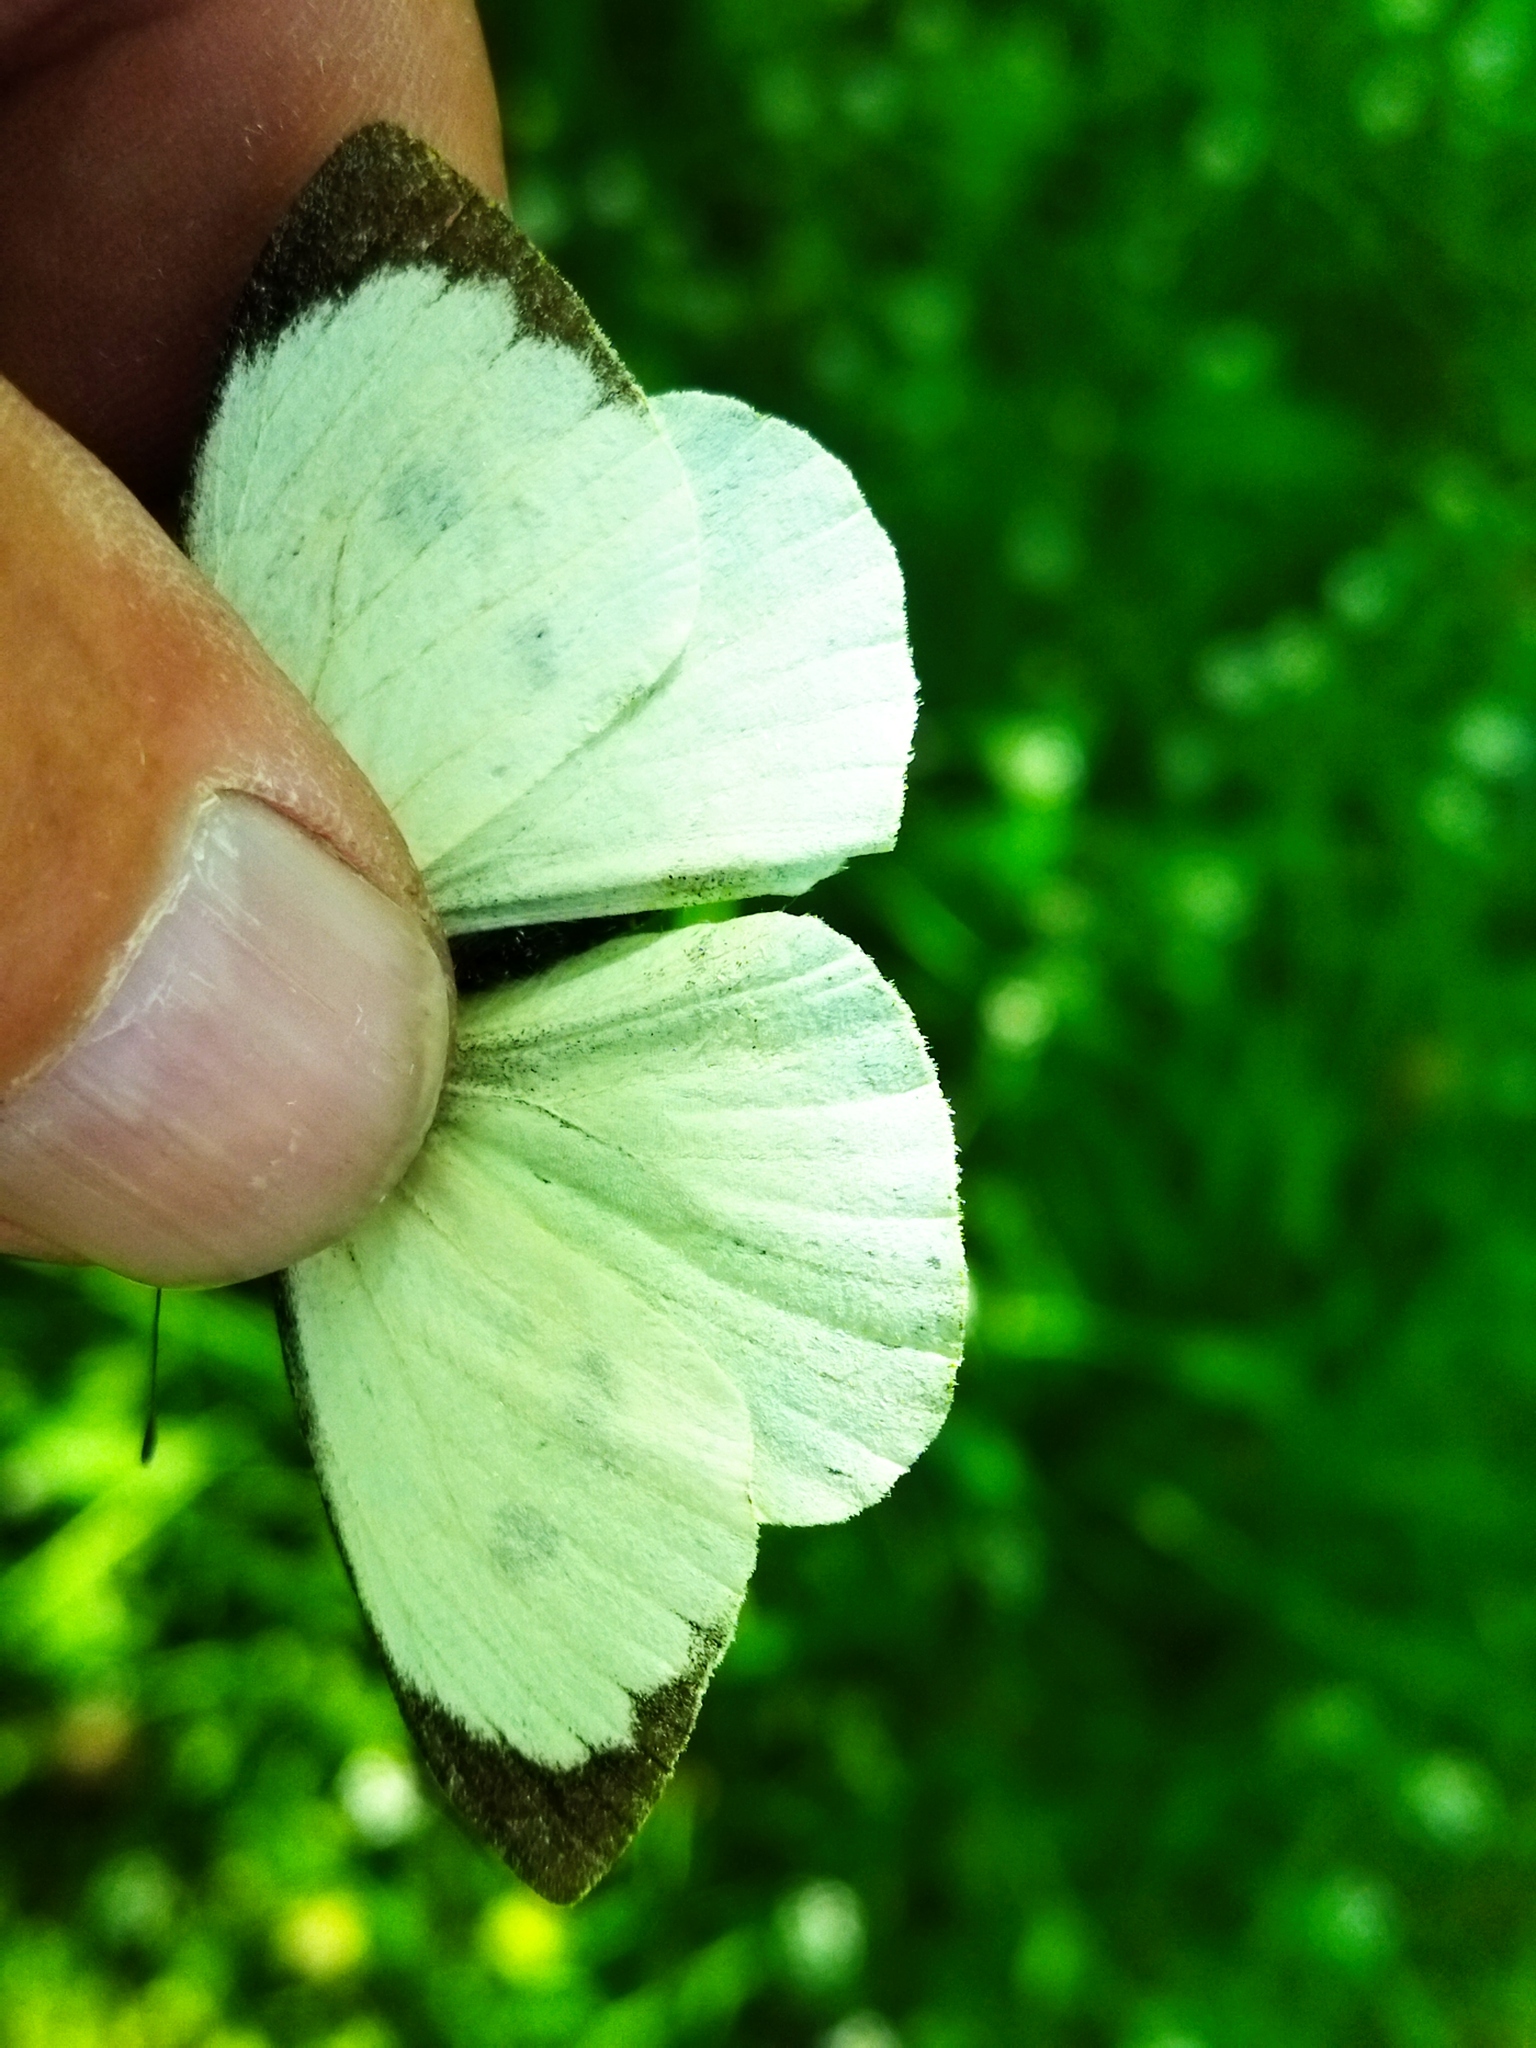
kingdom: Animalia
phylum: Arthropoda
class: Insecta
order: Lepidoptera
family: Pieridae
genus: Pieris
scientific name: Pieris brassicae
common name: Large white
